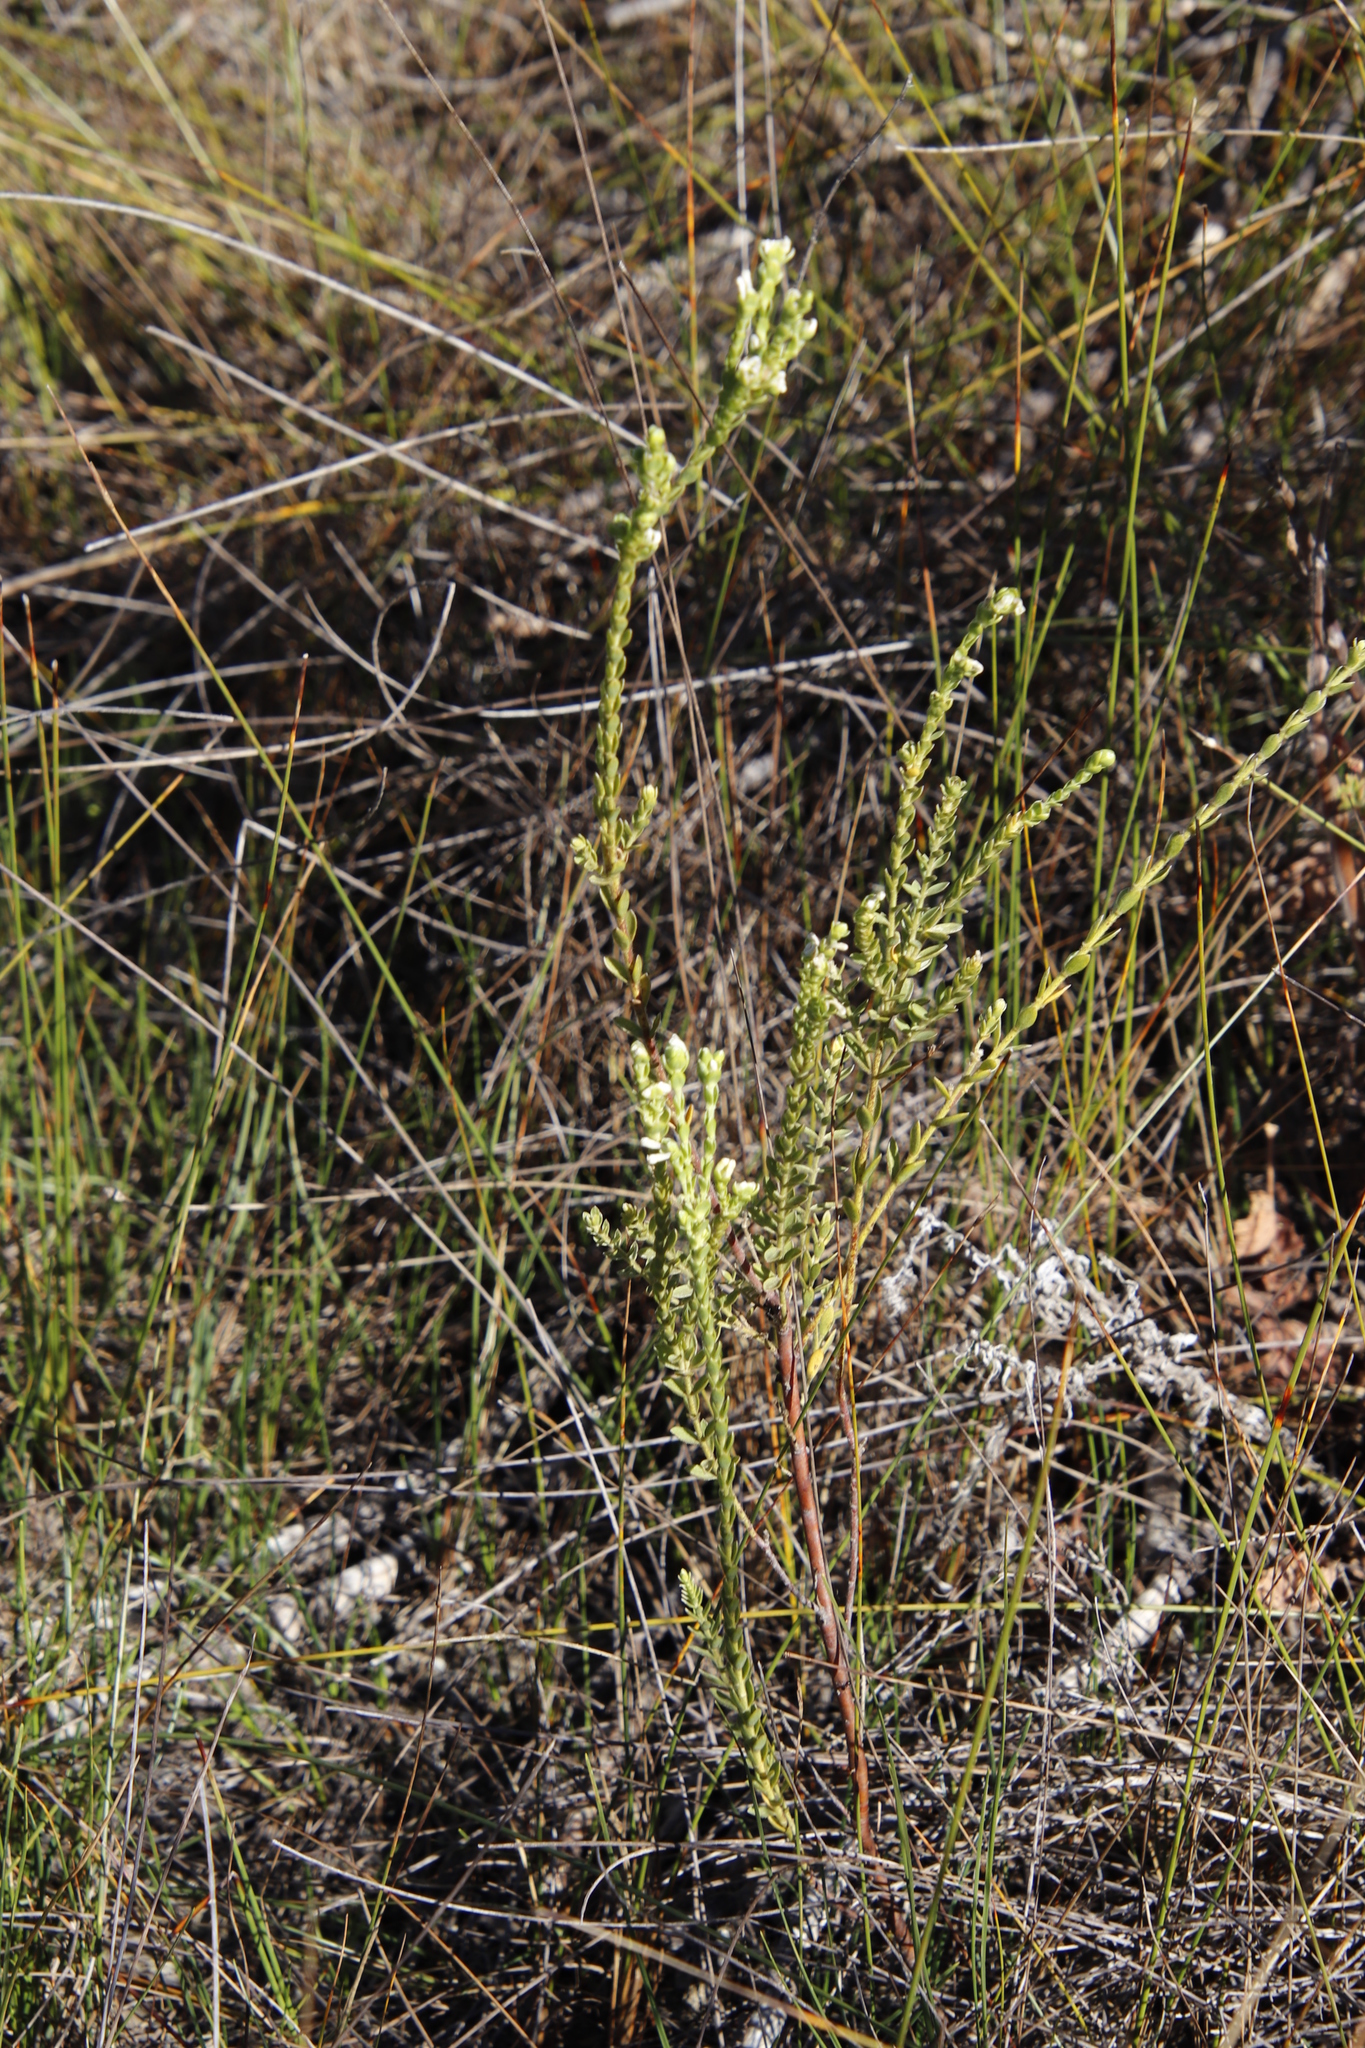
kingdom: Plantae
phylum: Tracheophyta
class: Magnoliopsida
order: Malvales
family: Thymelaeaceae
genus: Gnidia
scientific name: Gnidia sericea
